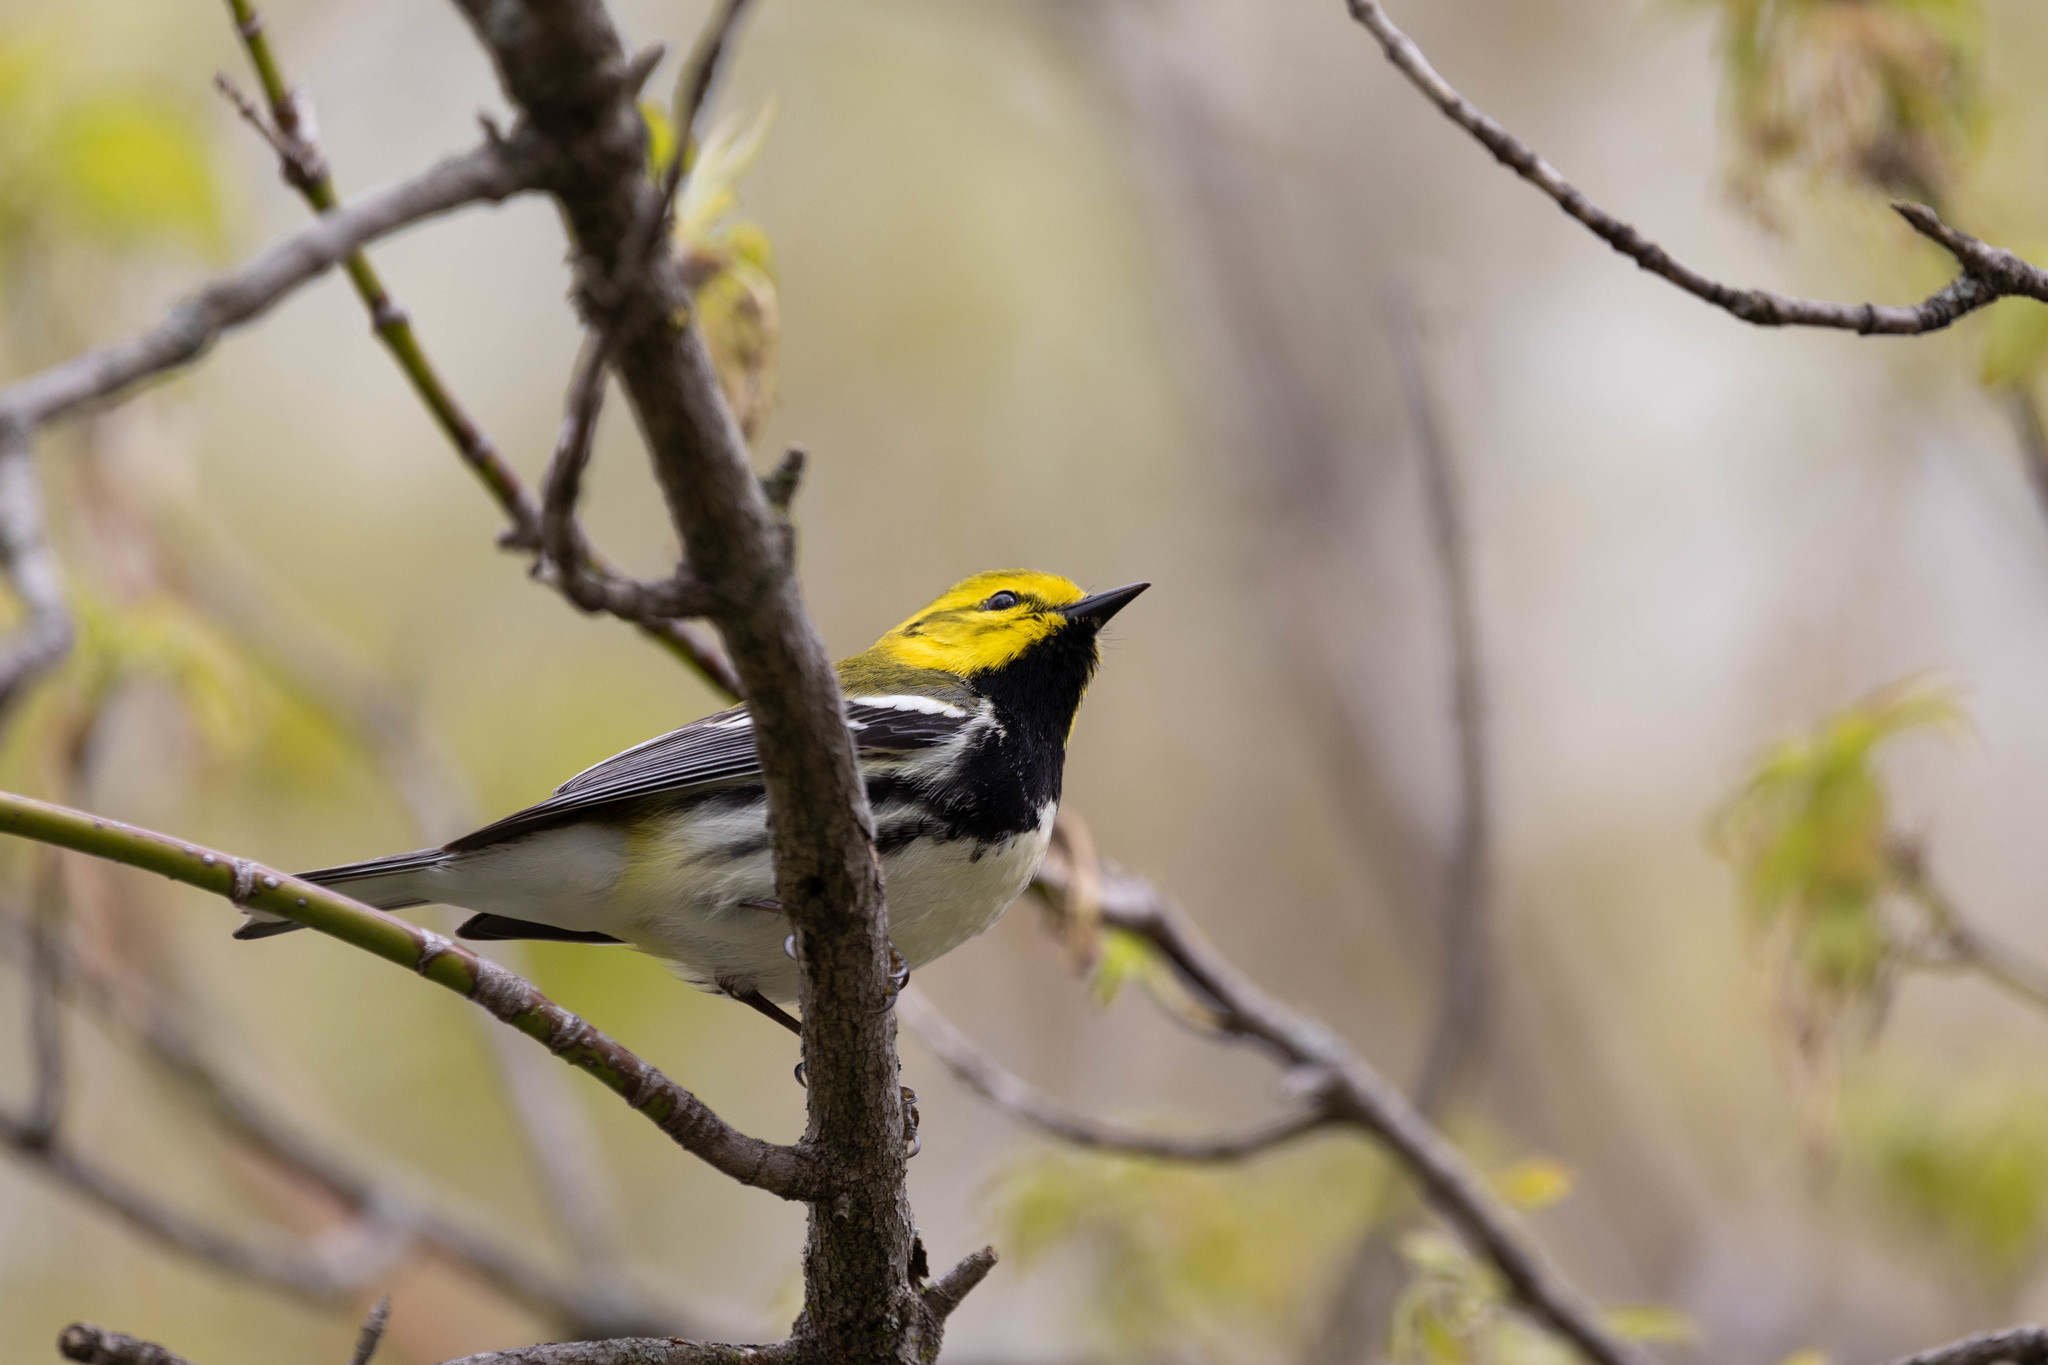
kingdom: Animalia
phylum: Chordata
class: Aves
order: Passeriformes
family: Parulidae
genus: Setophaga
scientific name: Setophaga virens
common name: Black-throated green warbler
